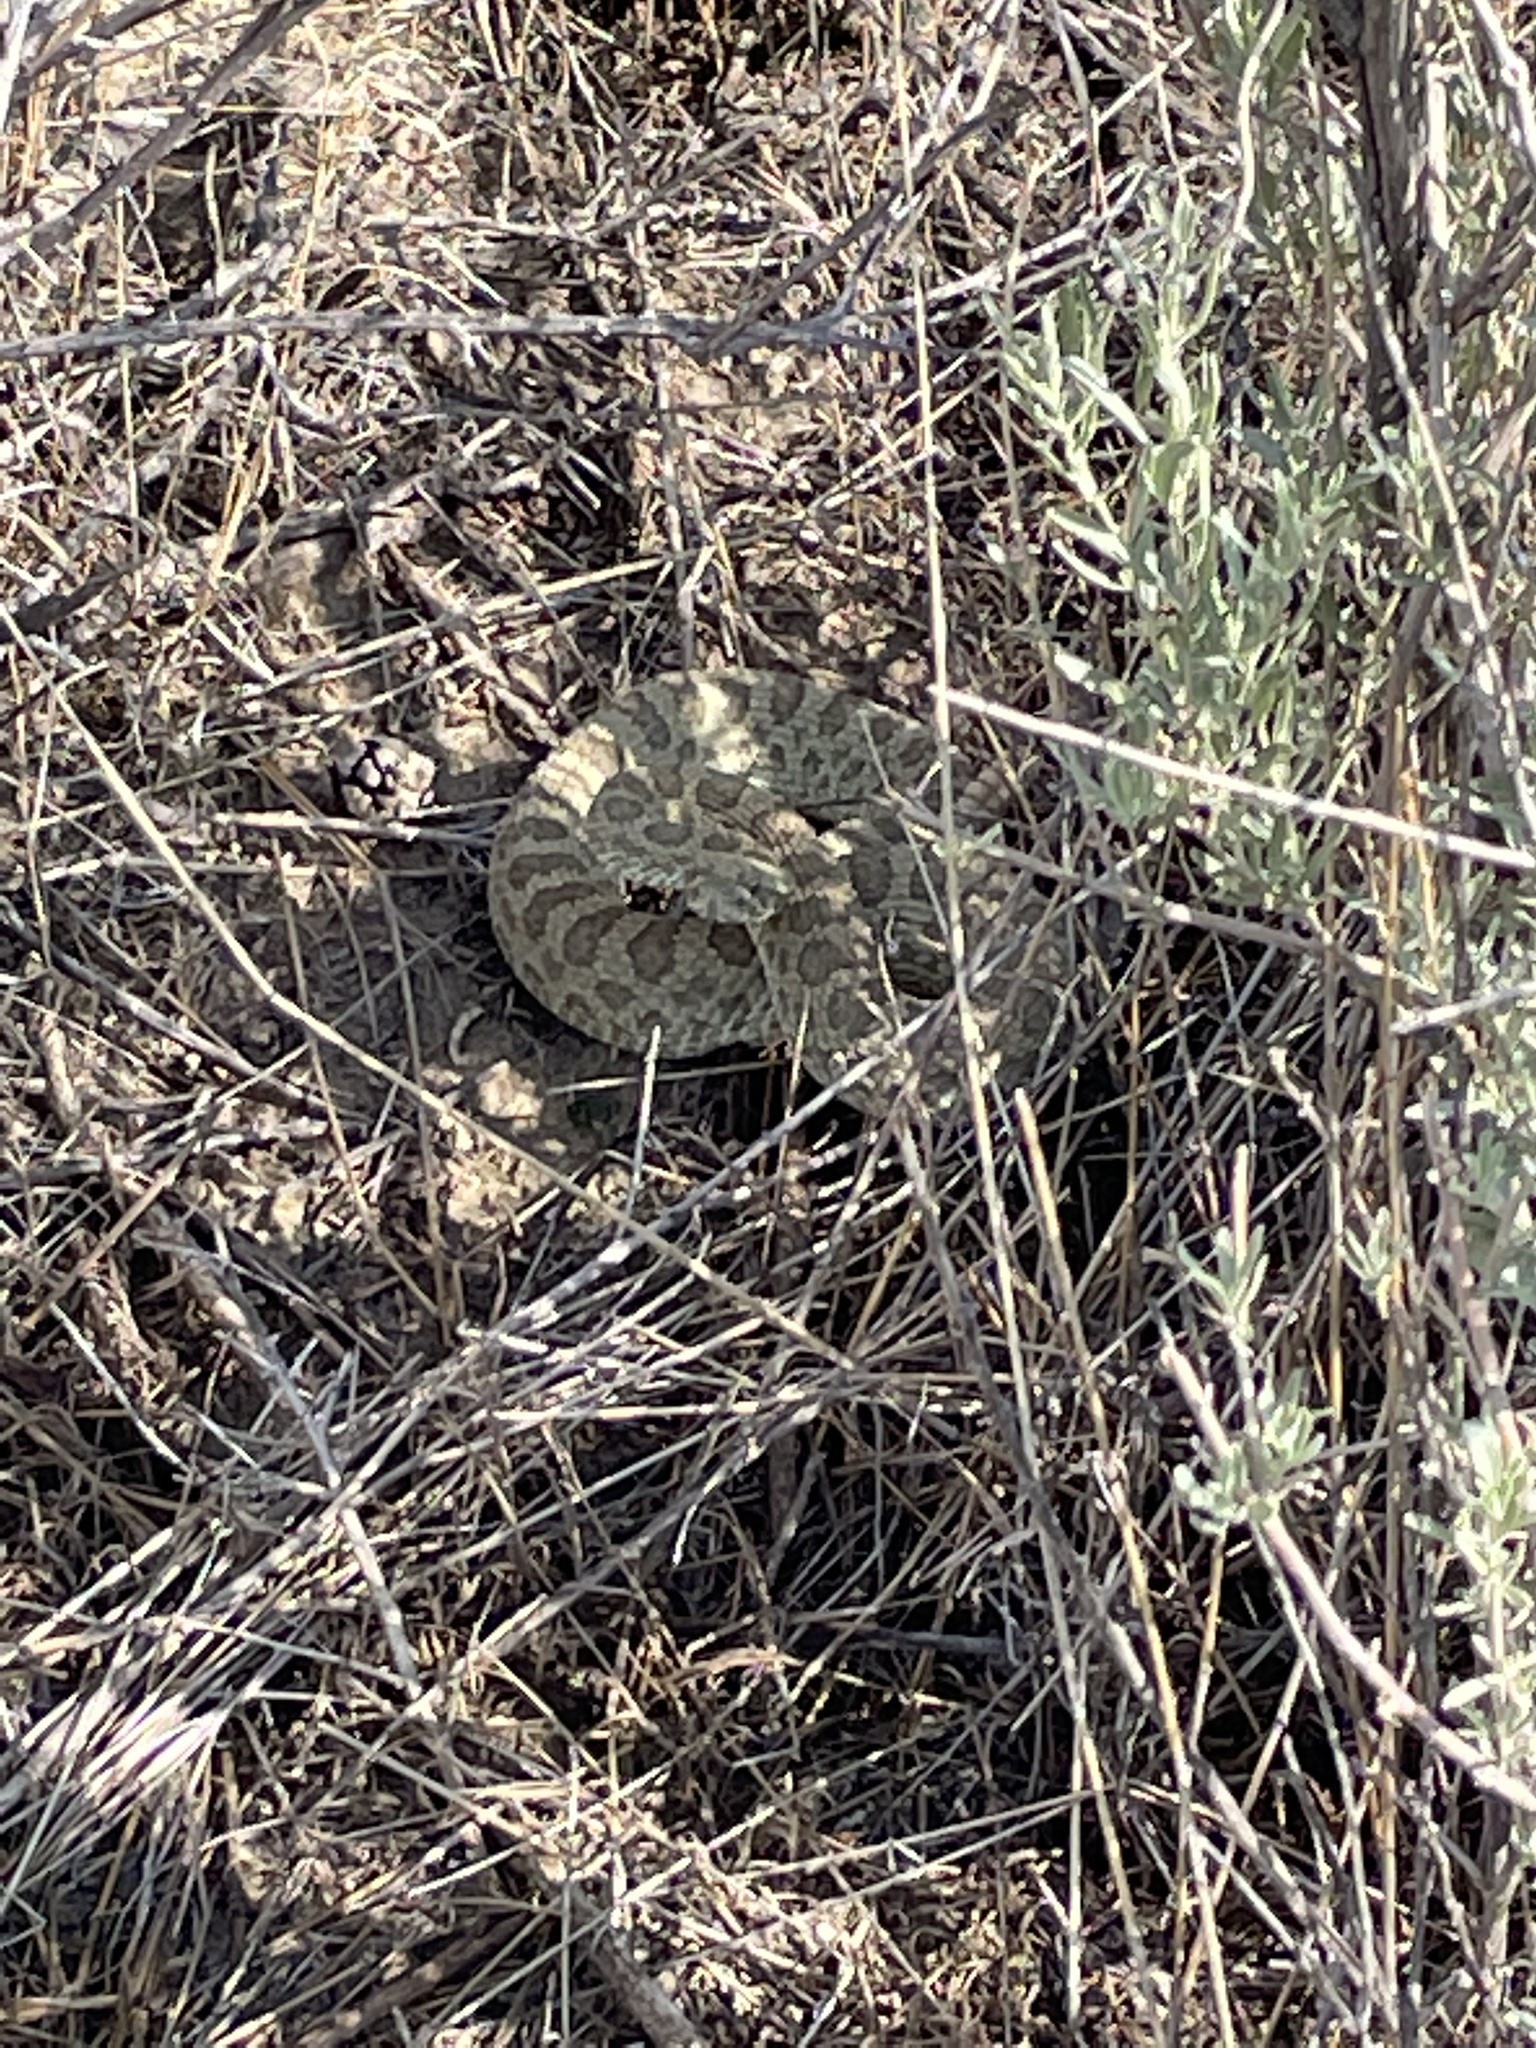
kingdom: Animalia
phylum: Chordata
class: Squamata
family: Viperidae
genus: Crotalus
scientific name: Crotalus viridis
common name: Prairie rattlesnake
